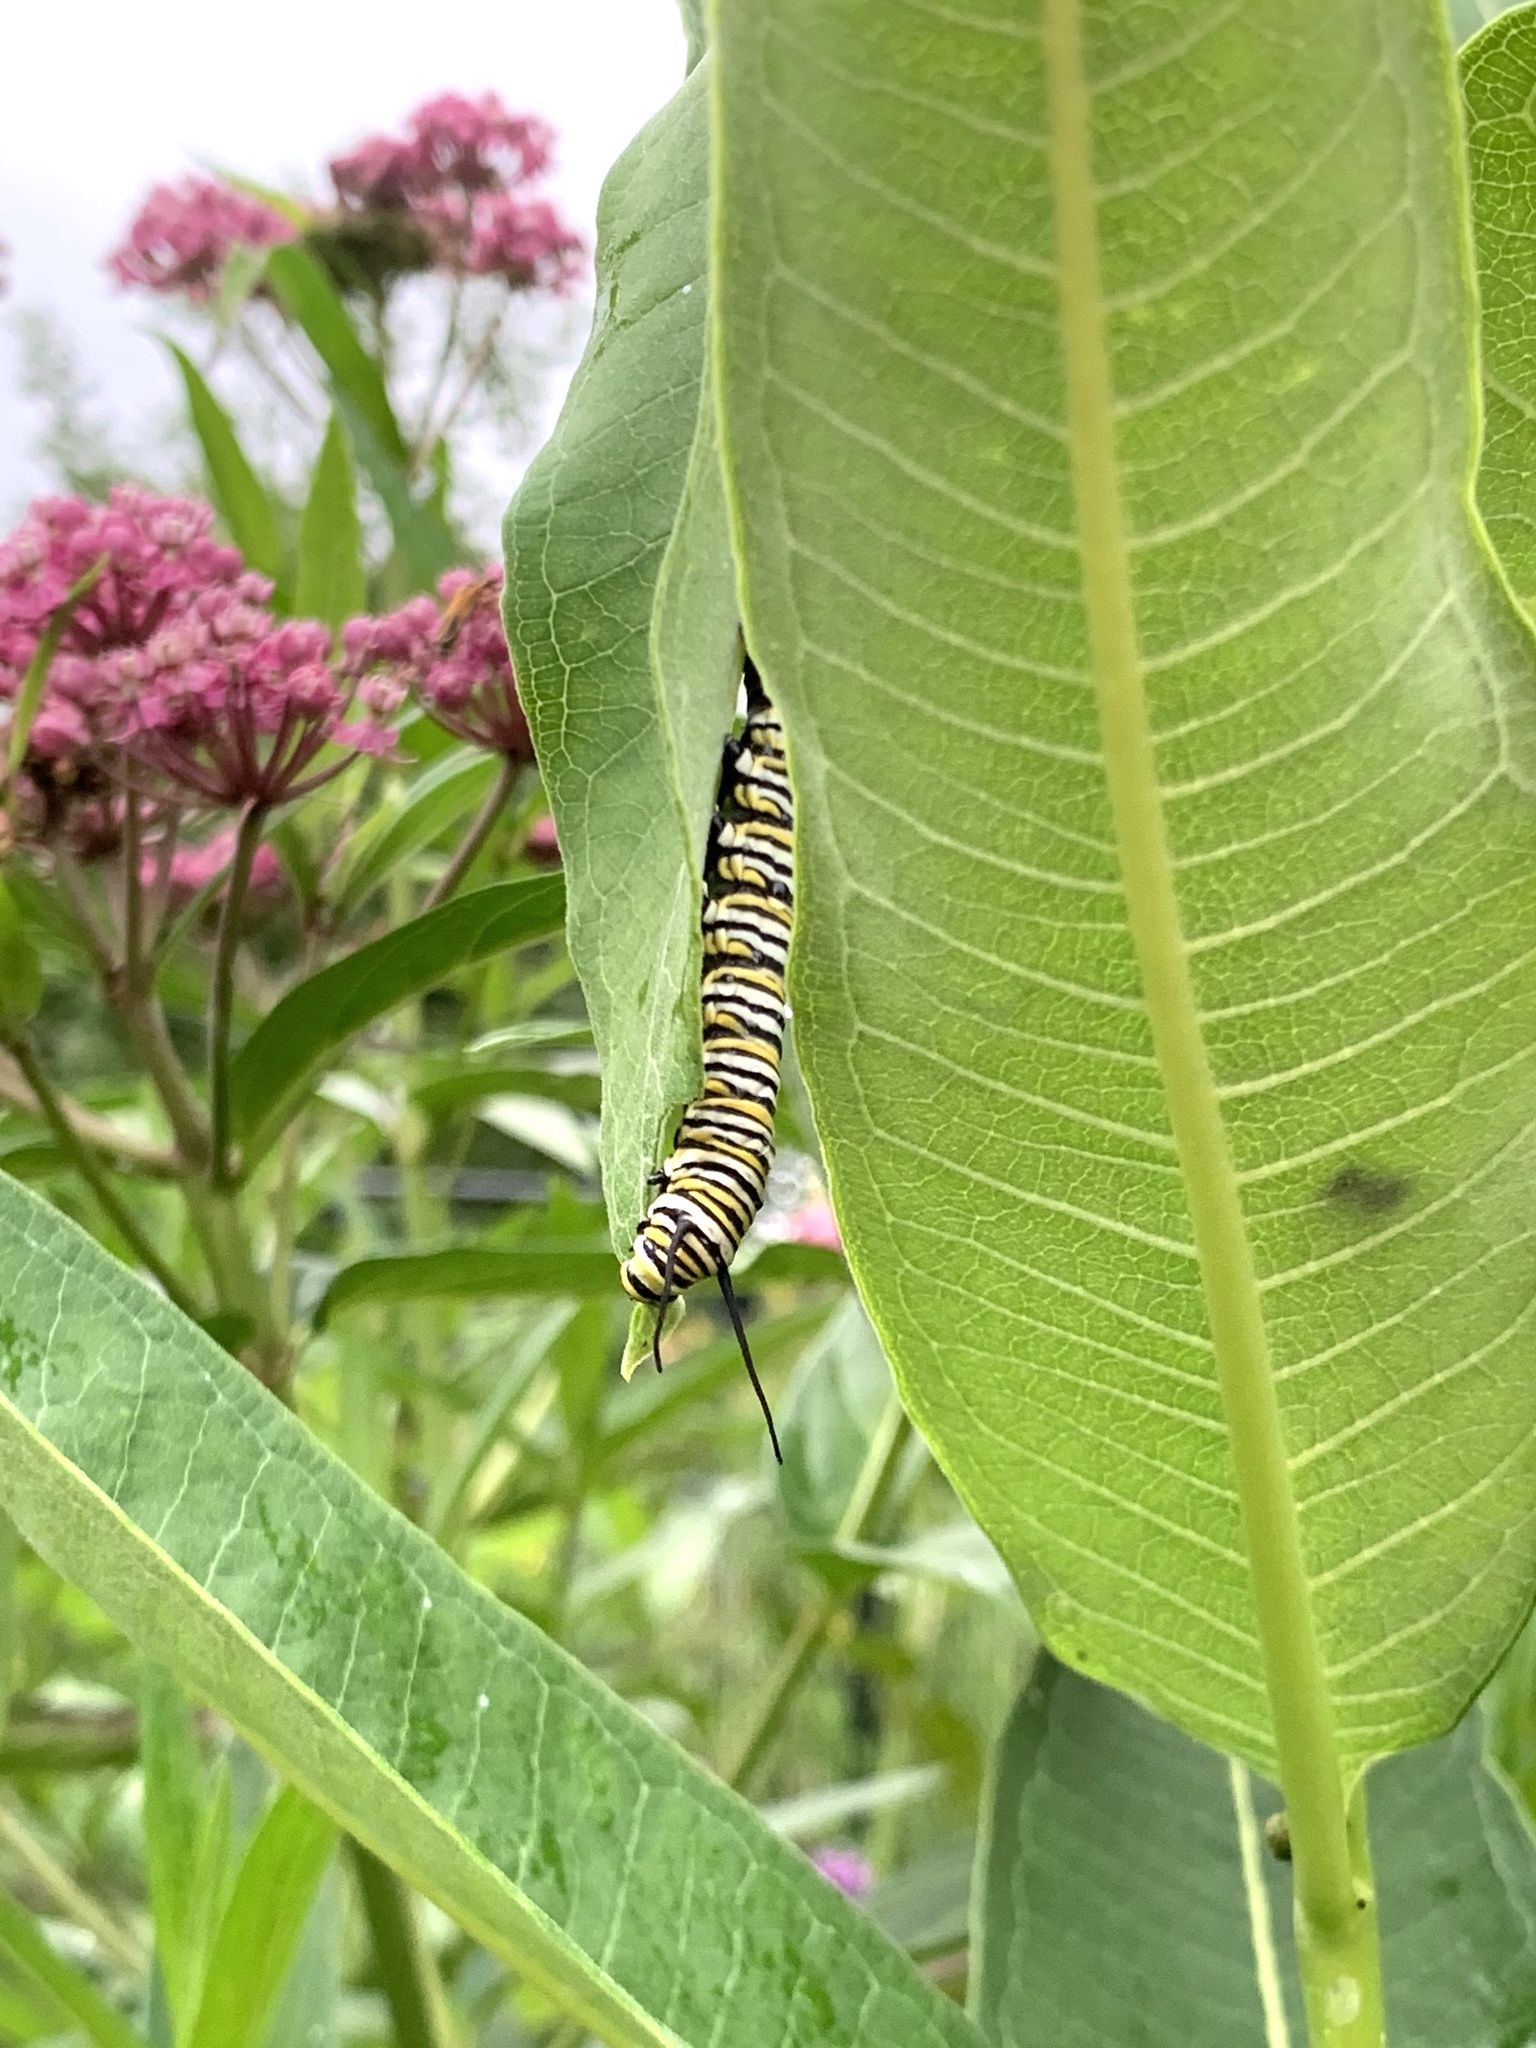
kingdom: Animalia
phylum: Arthropoda
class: Insecta
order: Lepidoptera
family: Nymphalidae
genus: Danaus
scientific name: Danaus plexippus
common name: Monarch
